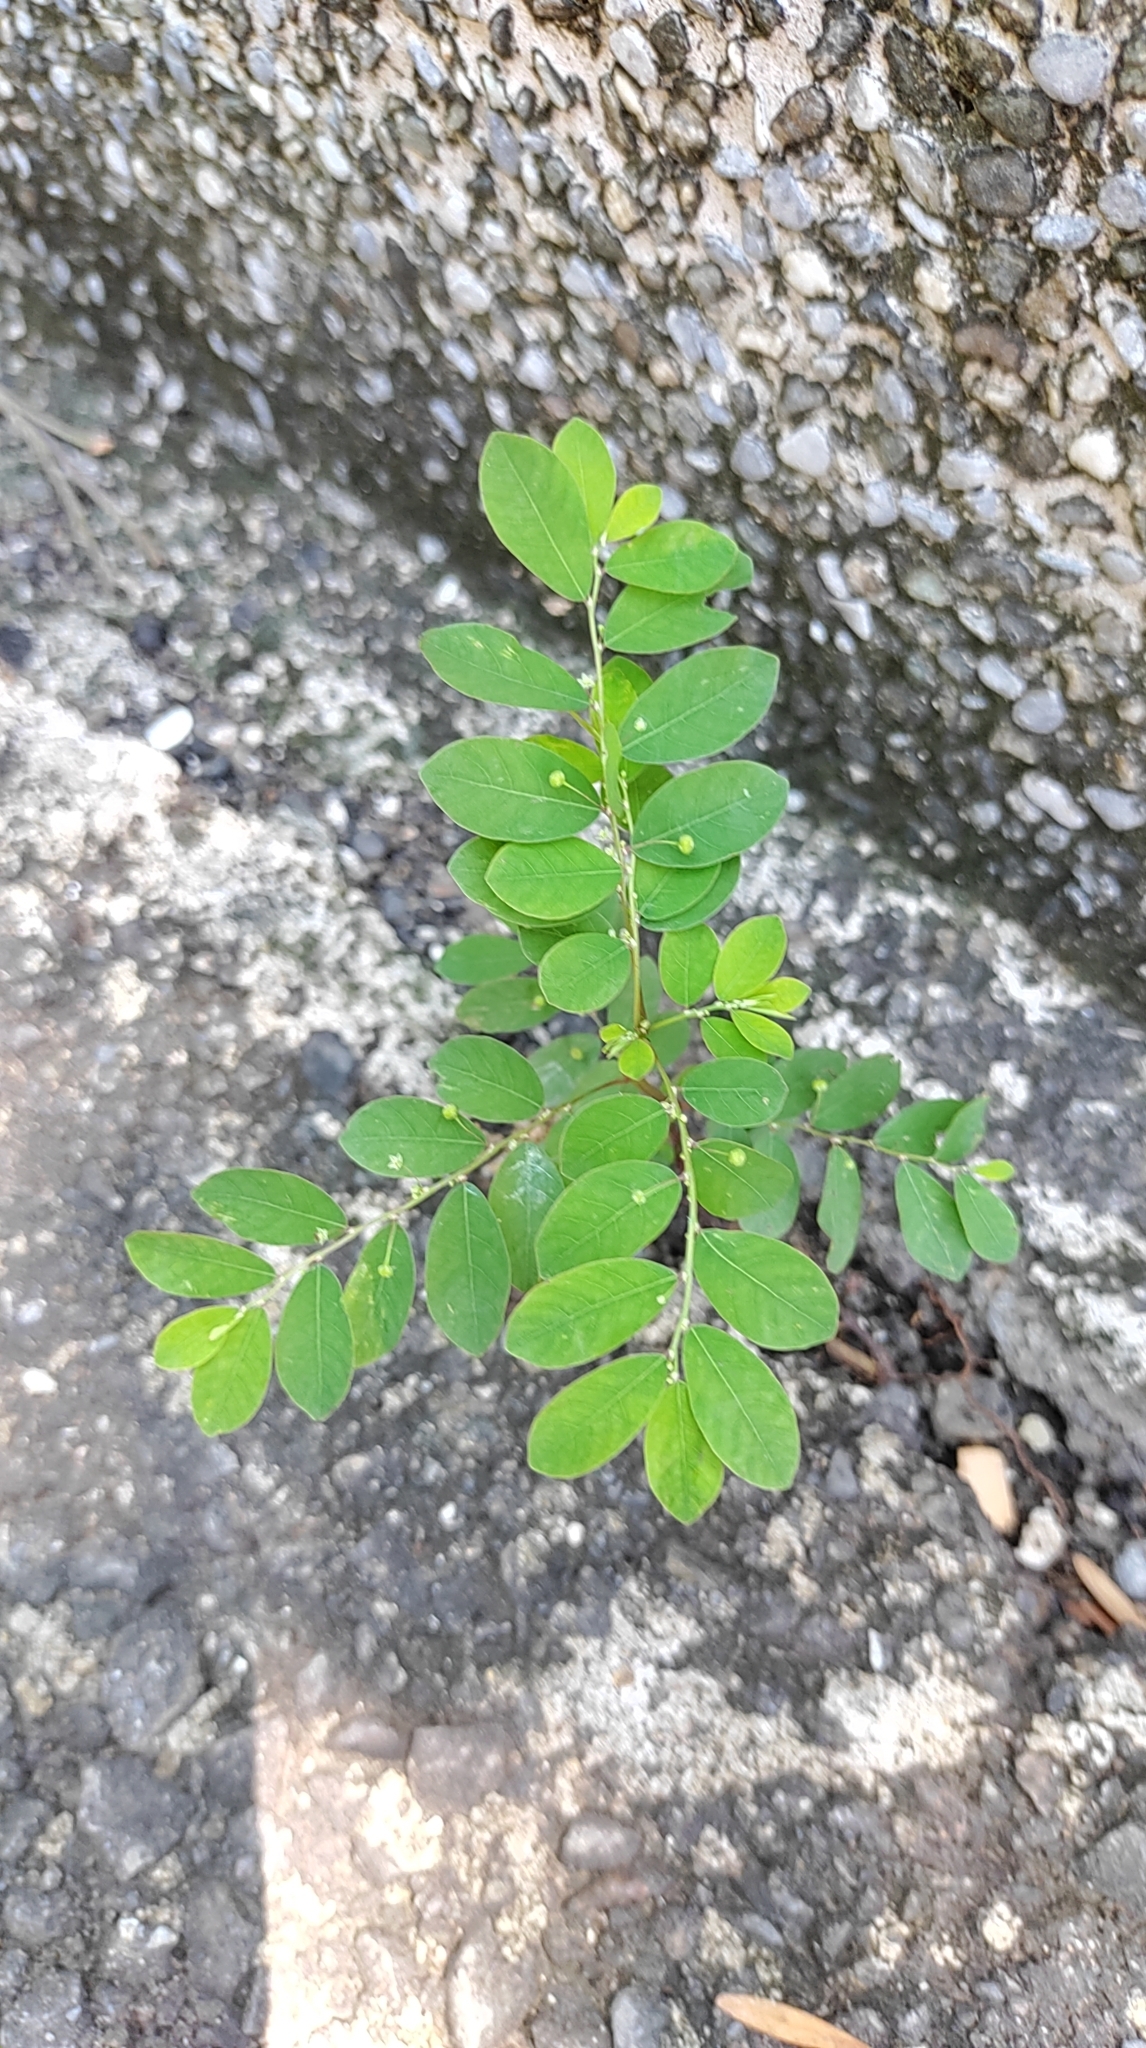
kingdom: Plantae
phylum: Tracheophyta
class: Magnoliopsida
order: Malpighiales
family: Phyllanthaceae
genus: Phyllanthus
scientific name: Phyllanthus tenellus
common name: Mascarene island leaf-flower
